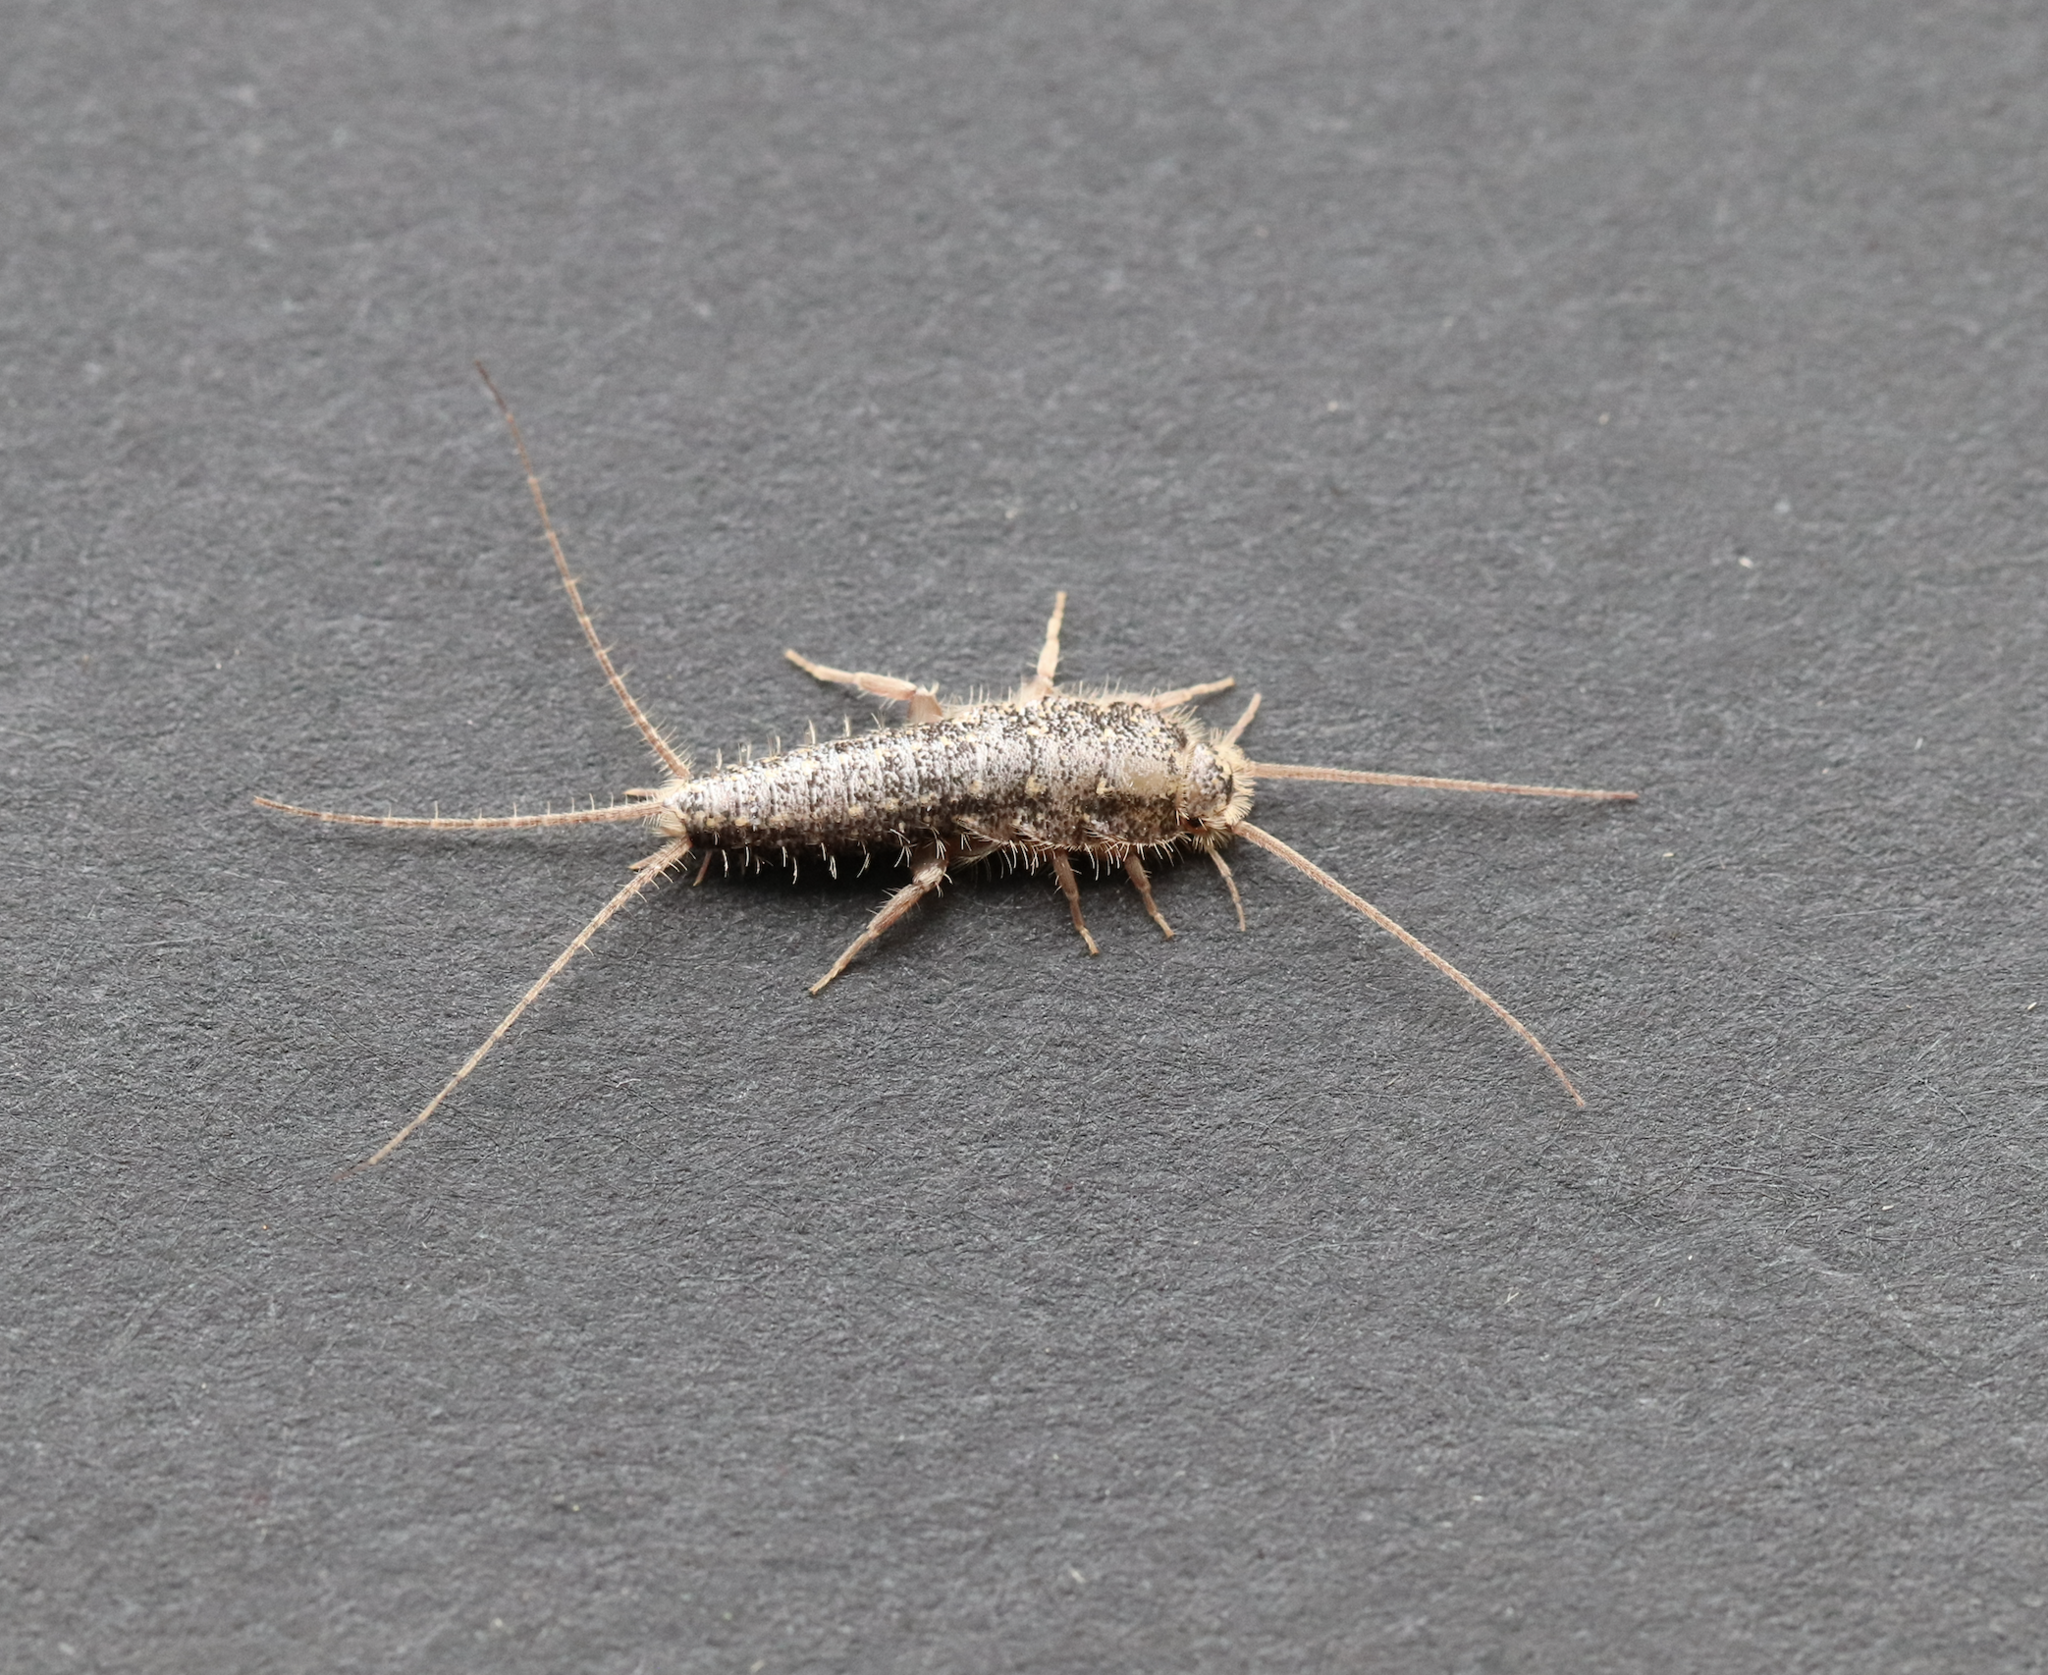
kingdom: Animalia
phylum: Arthropoda
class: Insecta
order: Zygentoma
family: Lepismatidae
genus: Ctenolepisma
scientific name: Ctenolepisma lineata
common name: Four-lined silverfish
